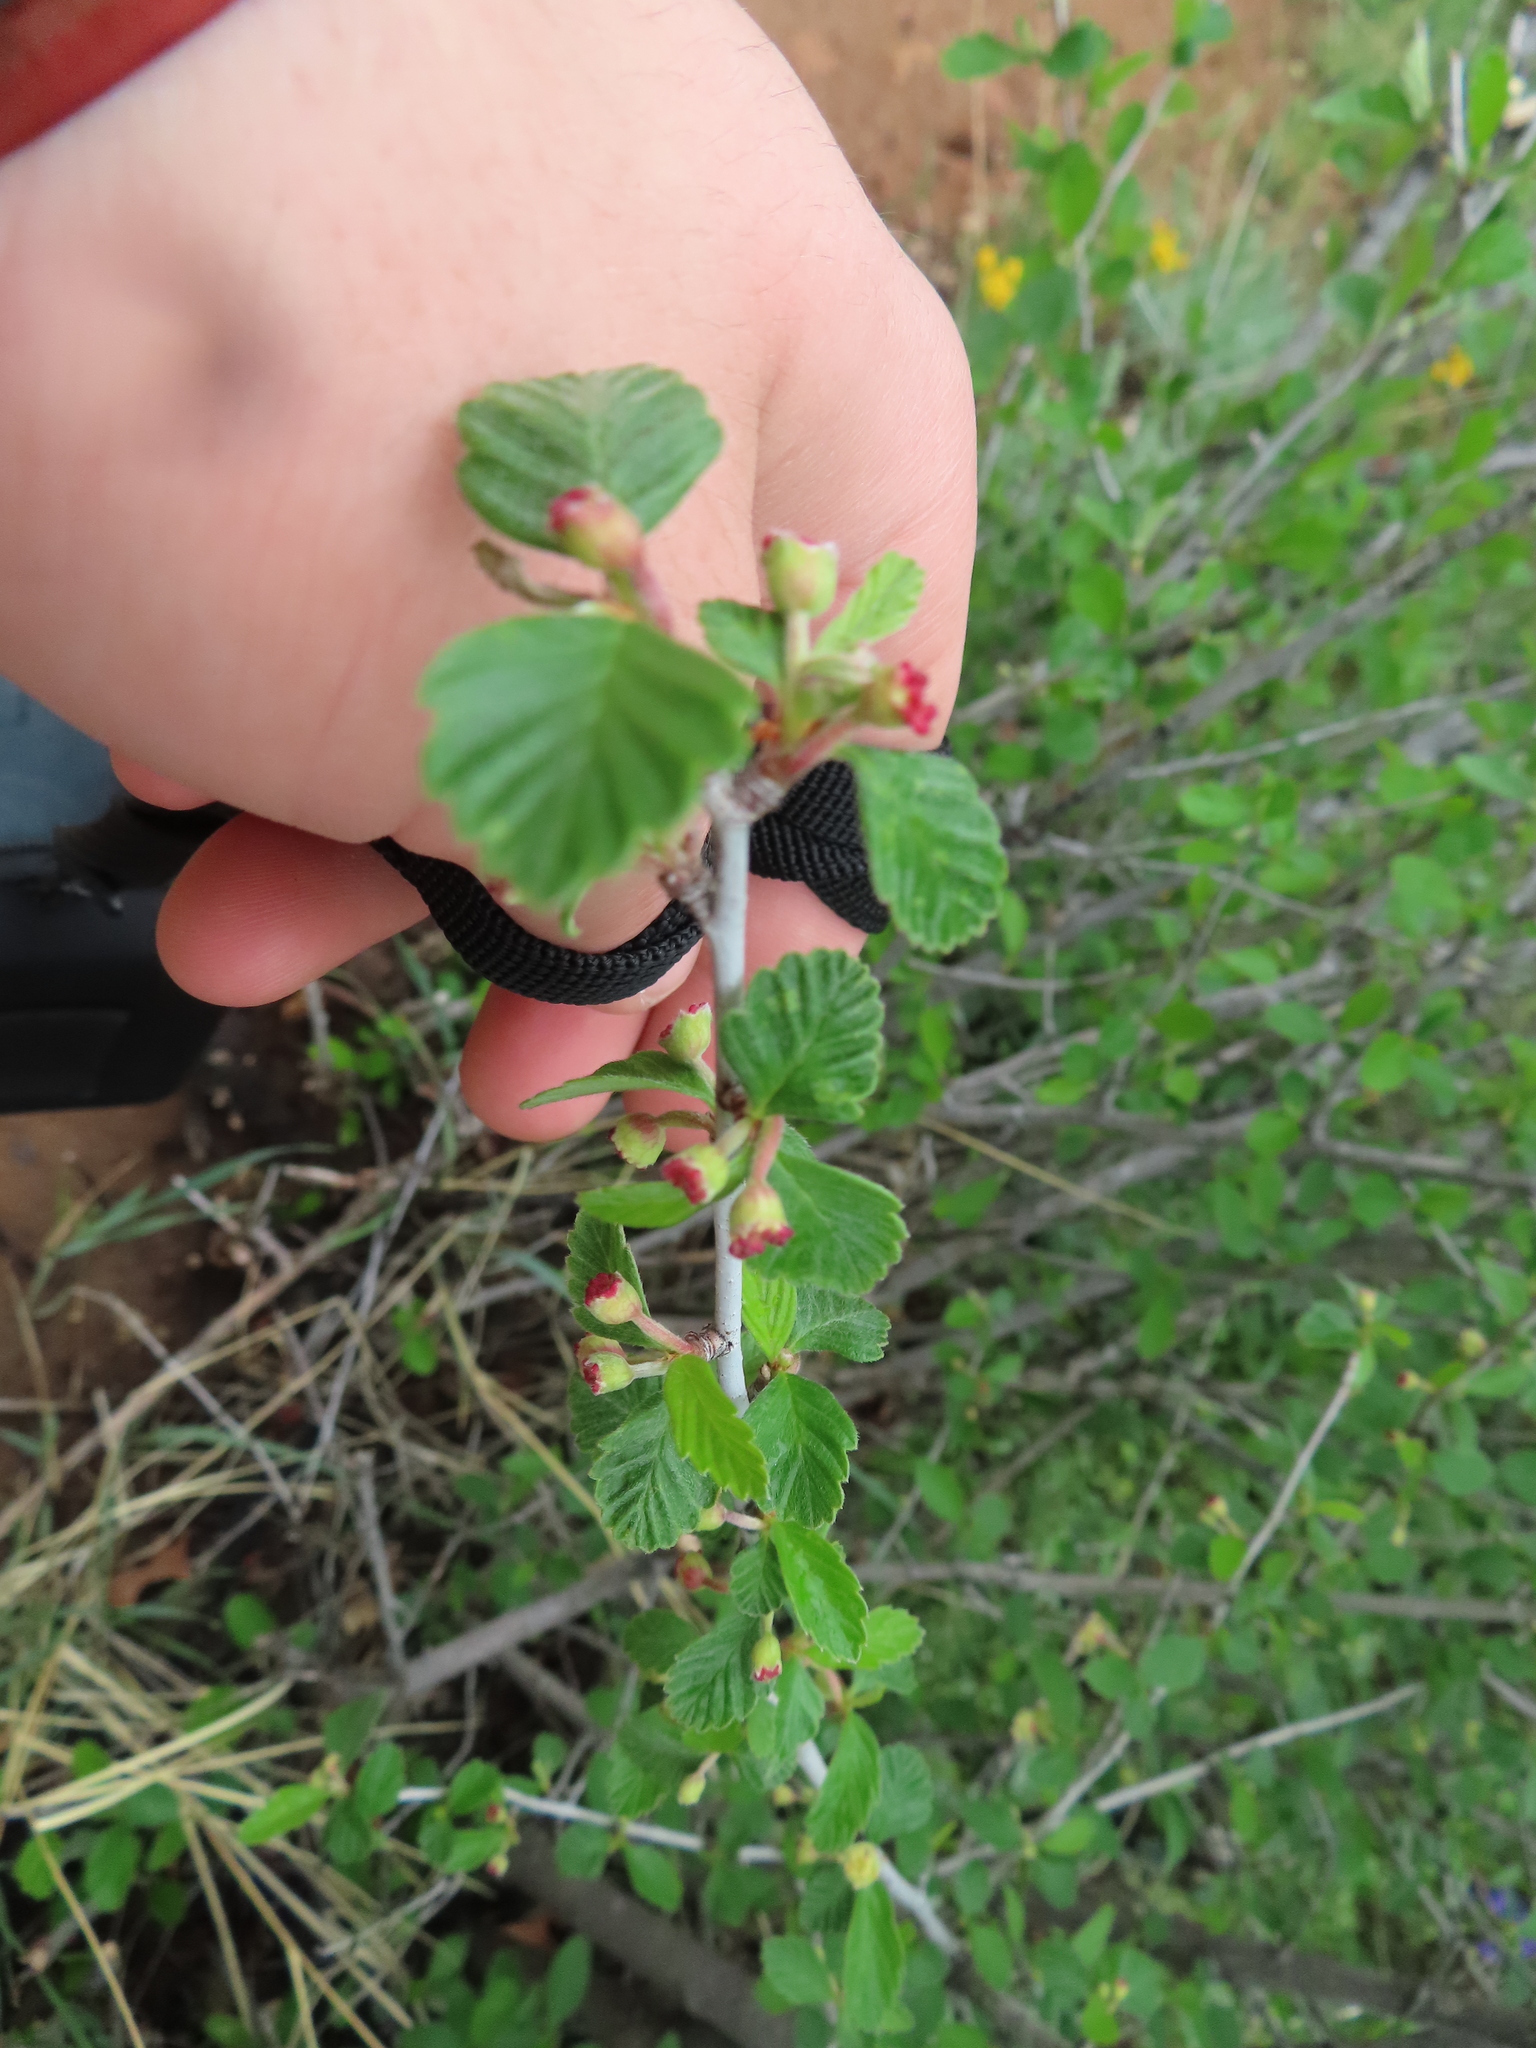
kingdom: Plantae
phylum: Tracheophyta
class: Magnoliopsida
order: Rosales
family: Rosaceae
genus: Cercocarpus
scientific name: Cercocarpus montanus
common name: Alder-leaf cercocarpus
